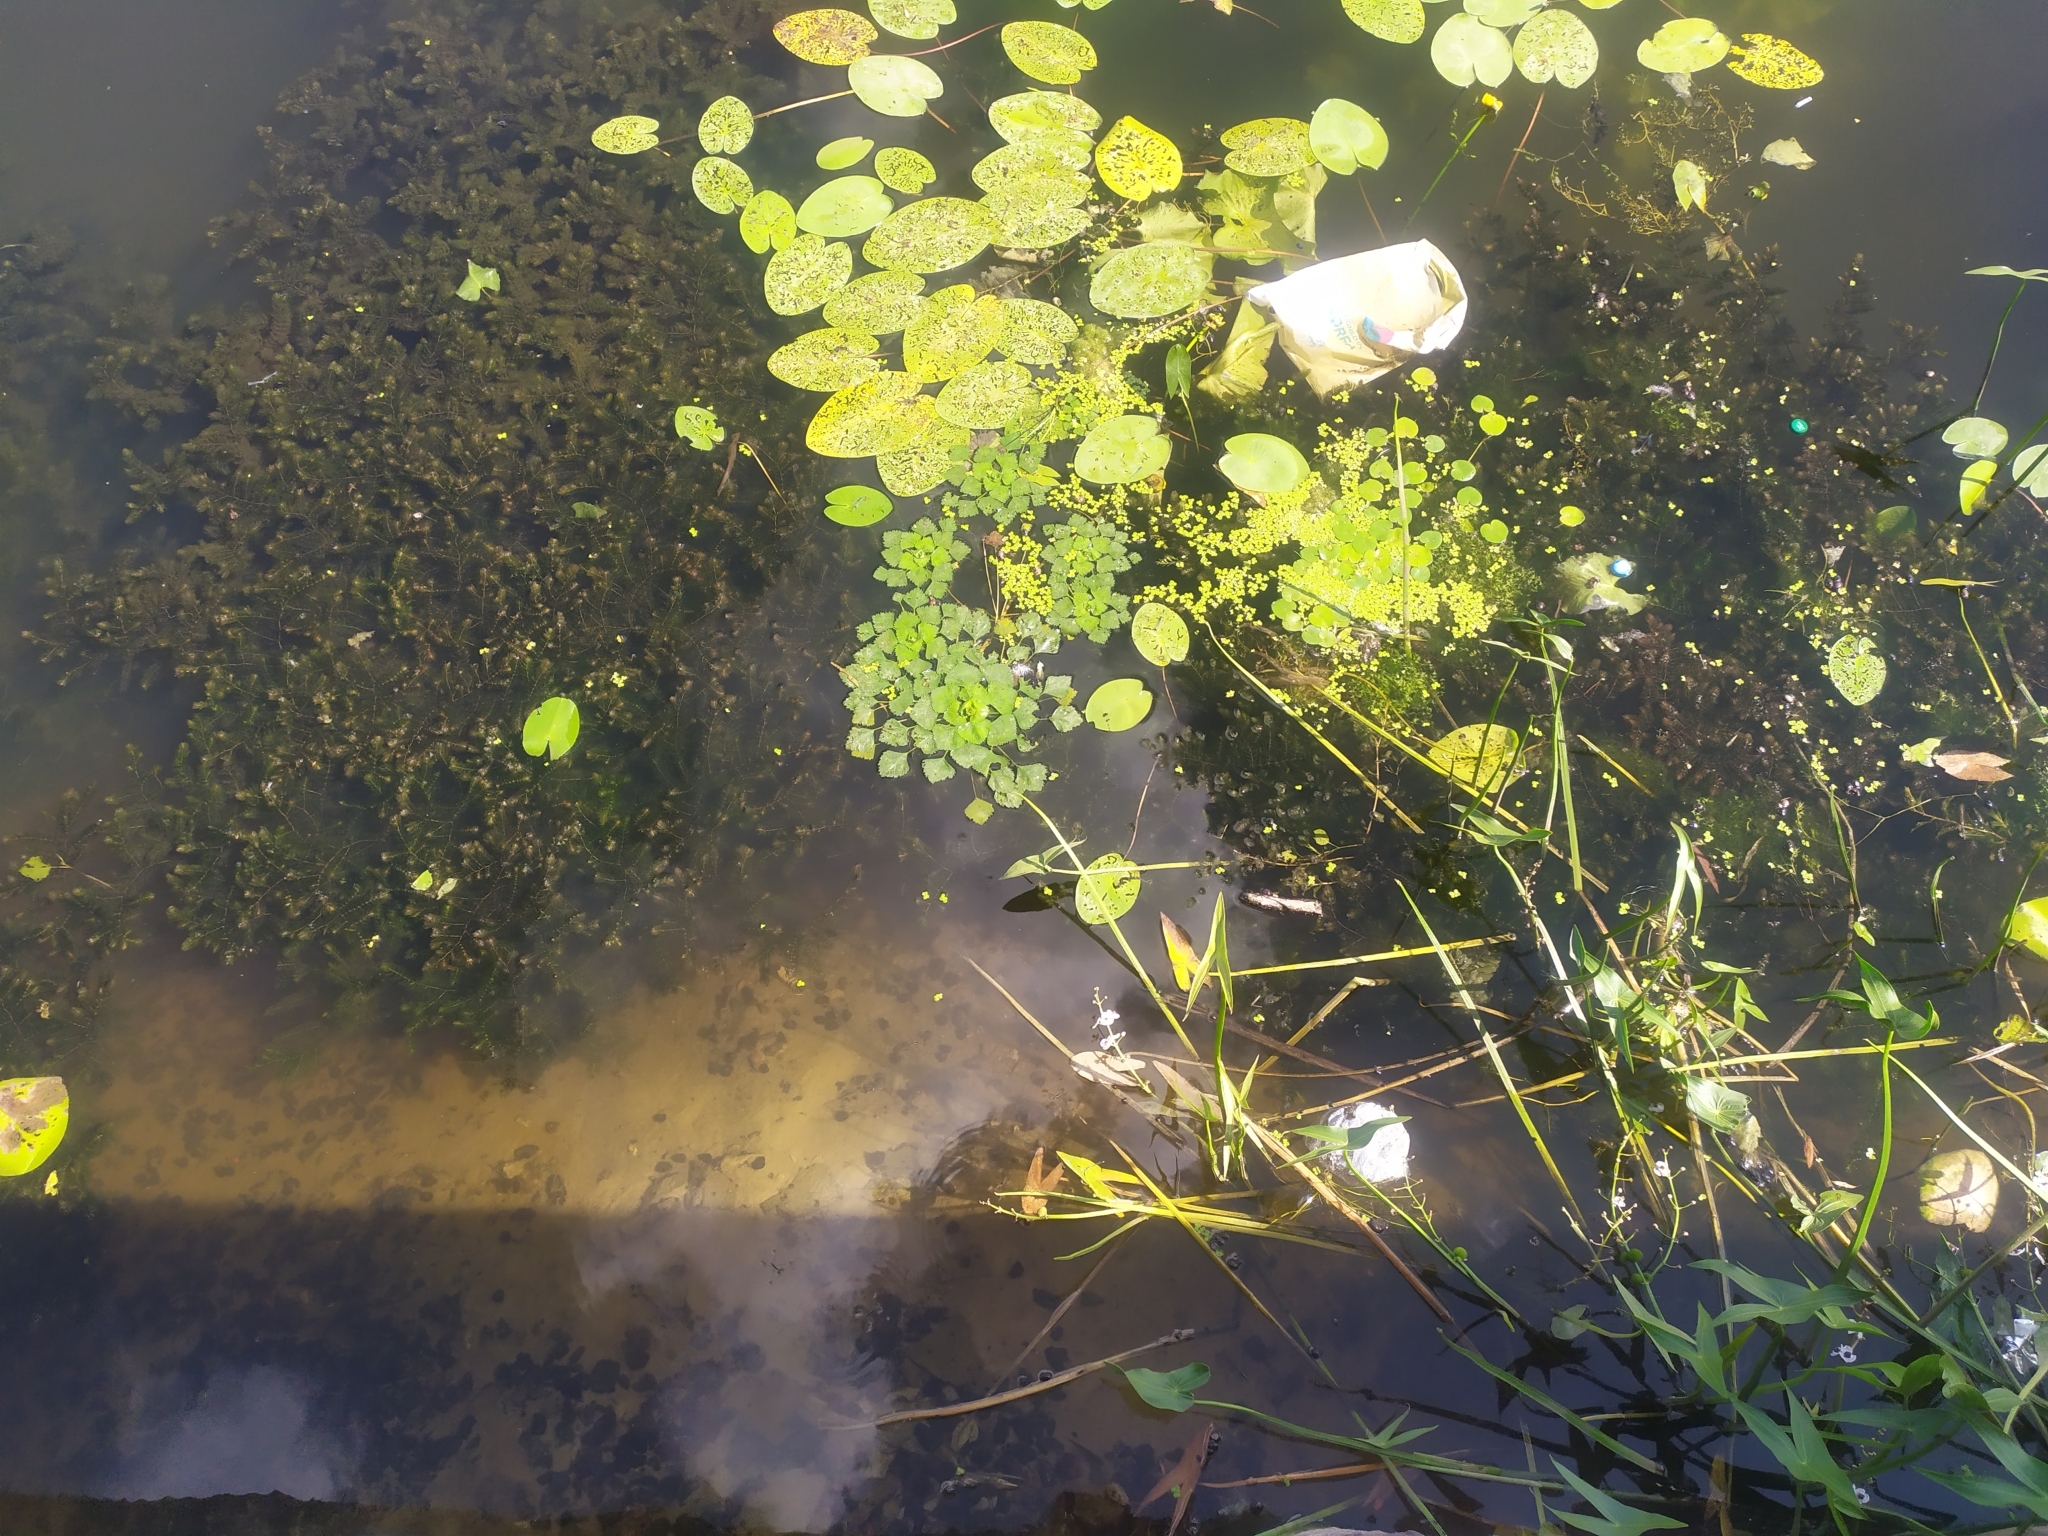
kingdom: Plantae
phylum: Tracheophyta
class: Magnoliopsida
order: Myrtales
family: Lythraceae
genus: Trapa
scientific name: Trapa natans
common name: Water chestnut
